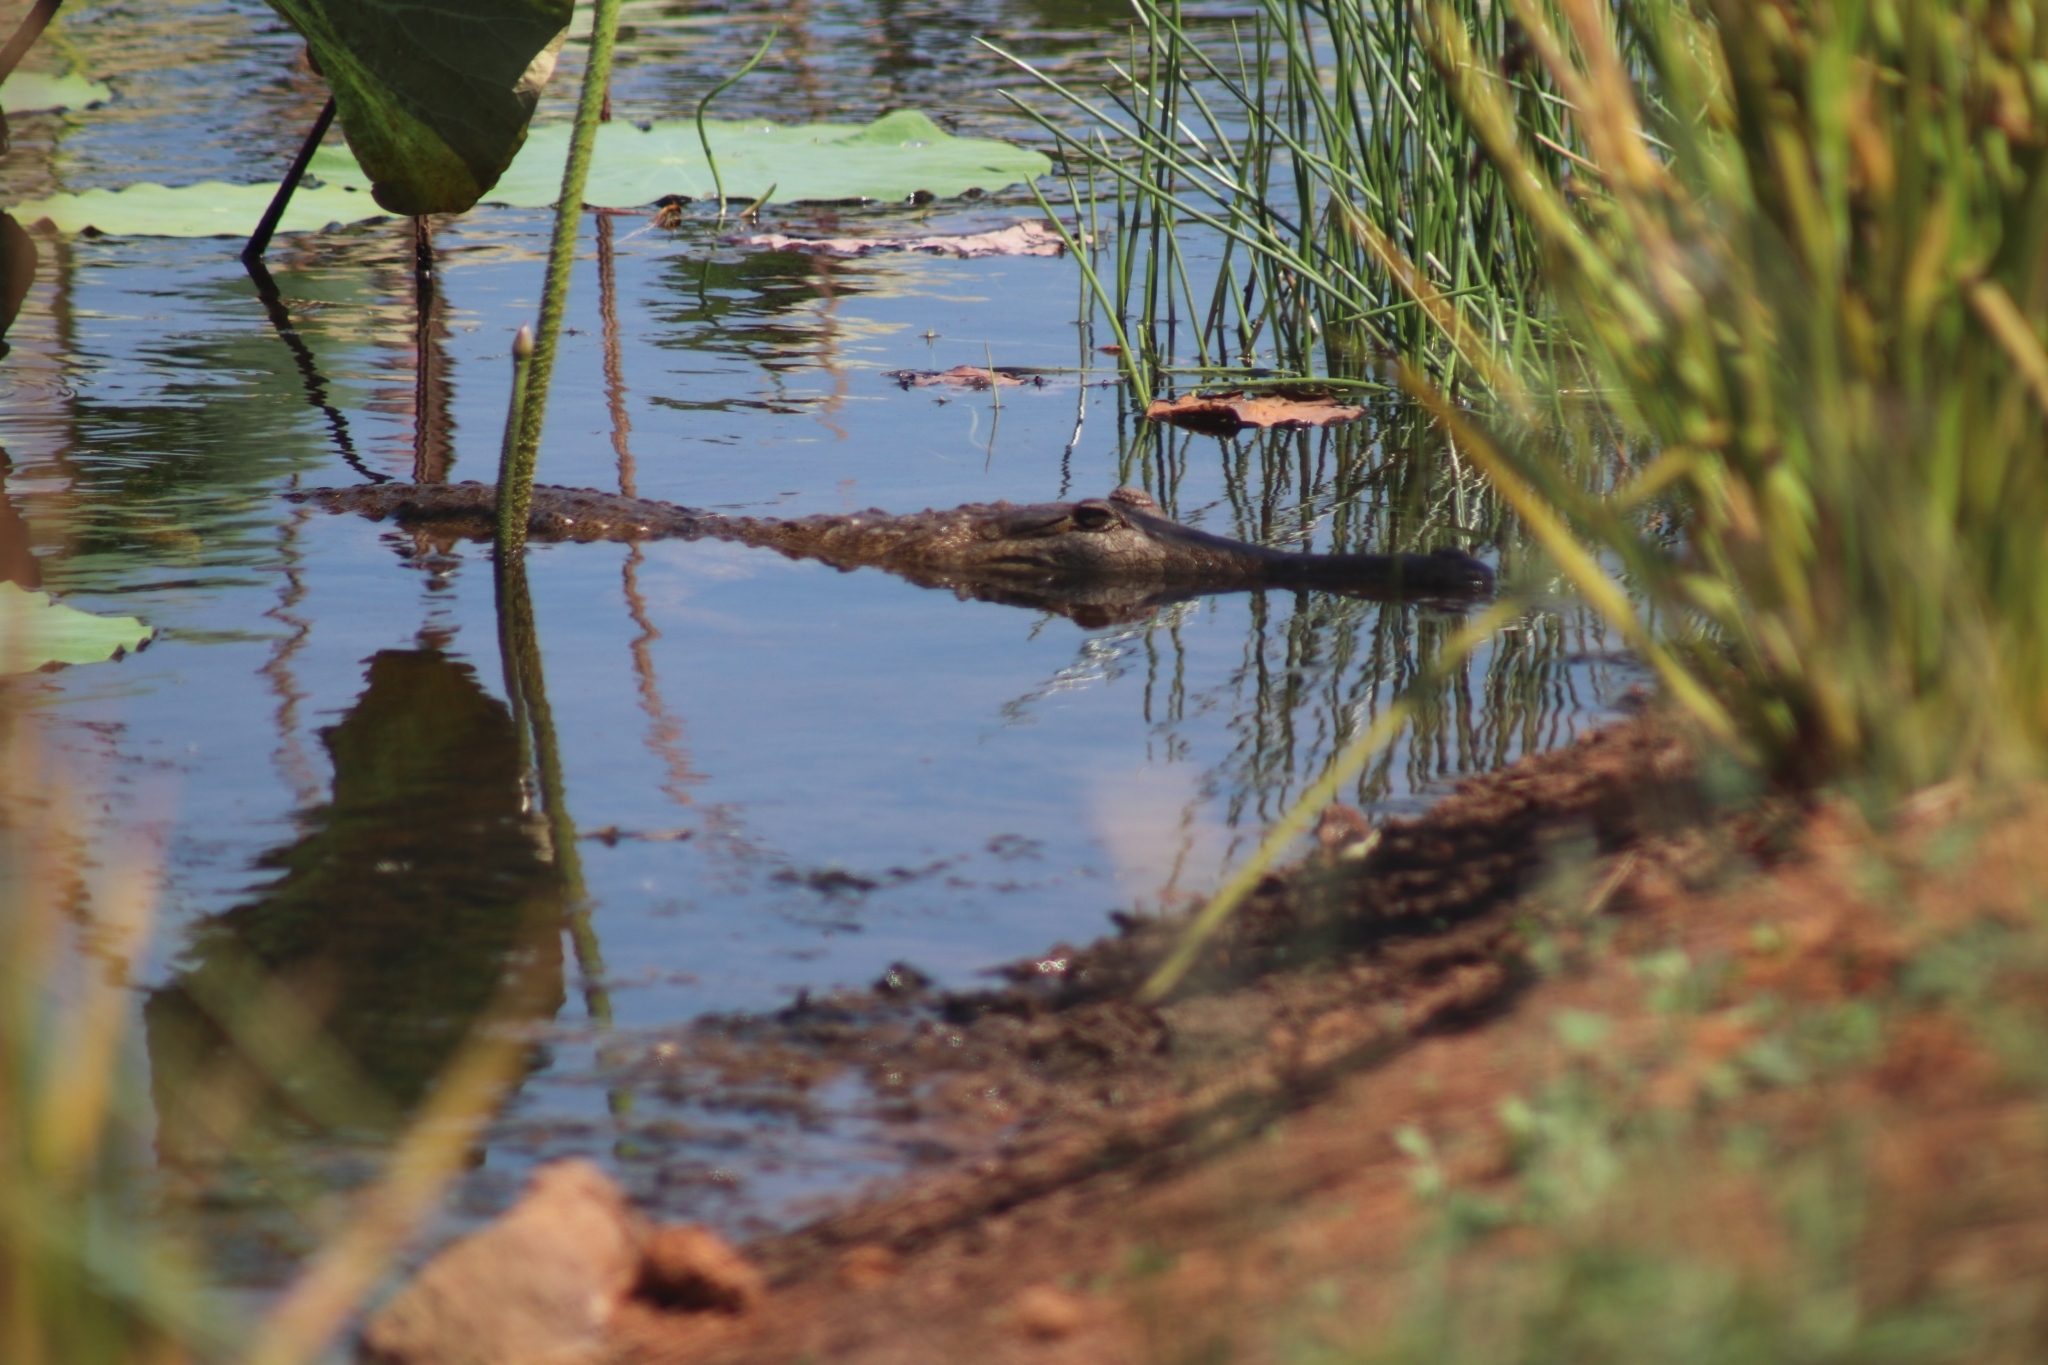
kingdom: Animalia
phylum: Chordata
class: Crocodylia
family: Crocodylidae
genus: Crocodylus
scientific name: Crocodylus johnsoni
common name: Freshwater crocodile
